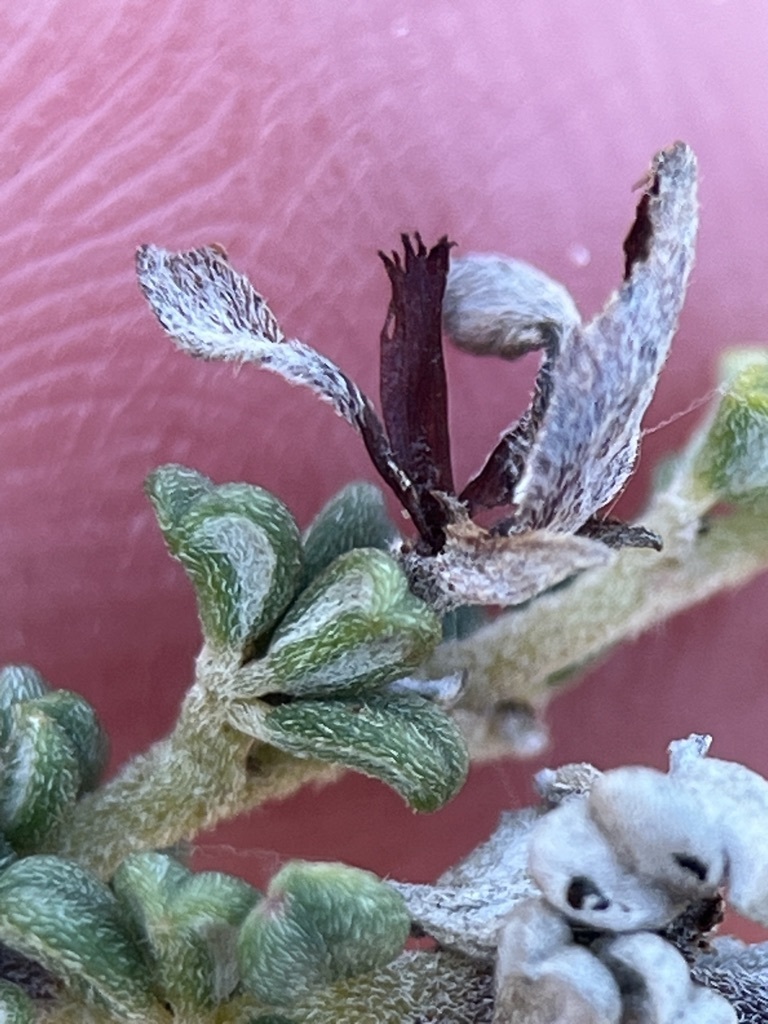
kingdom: Plantae
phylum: Tracheophyta
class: Magnoliopsida
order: Fabales
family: Fabaceae
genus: Indigofera
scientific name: Indigofera hamulosa
